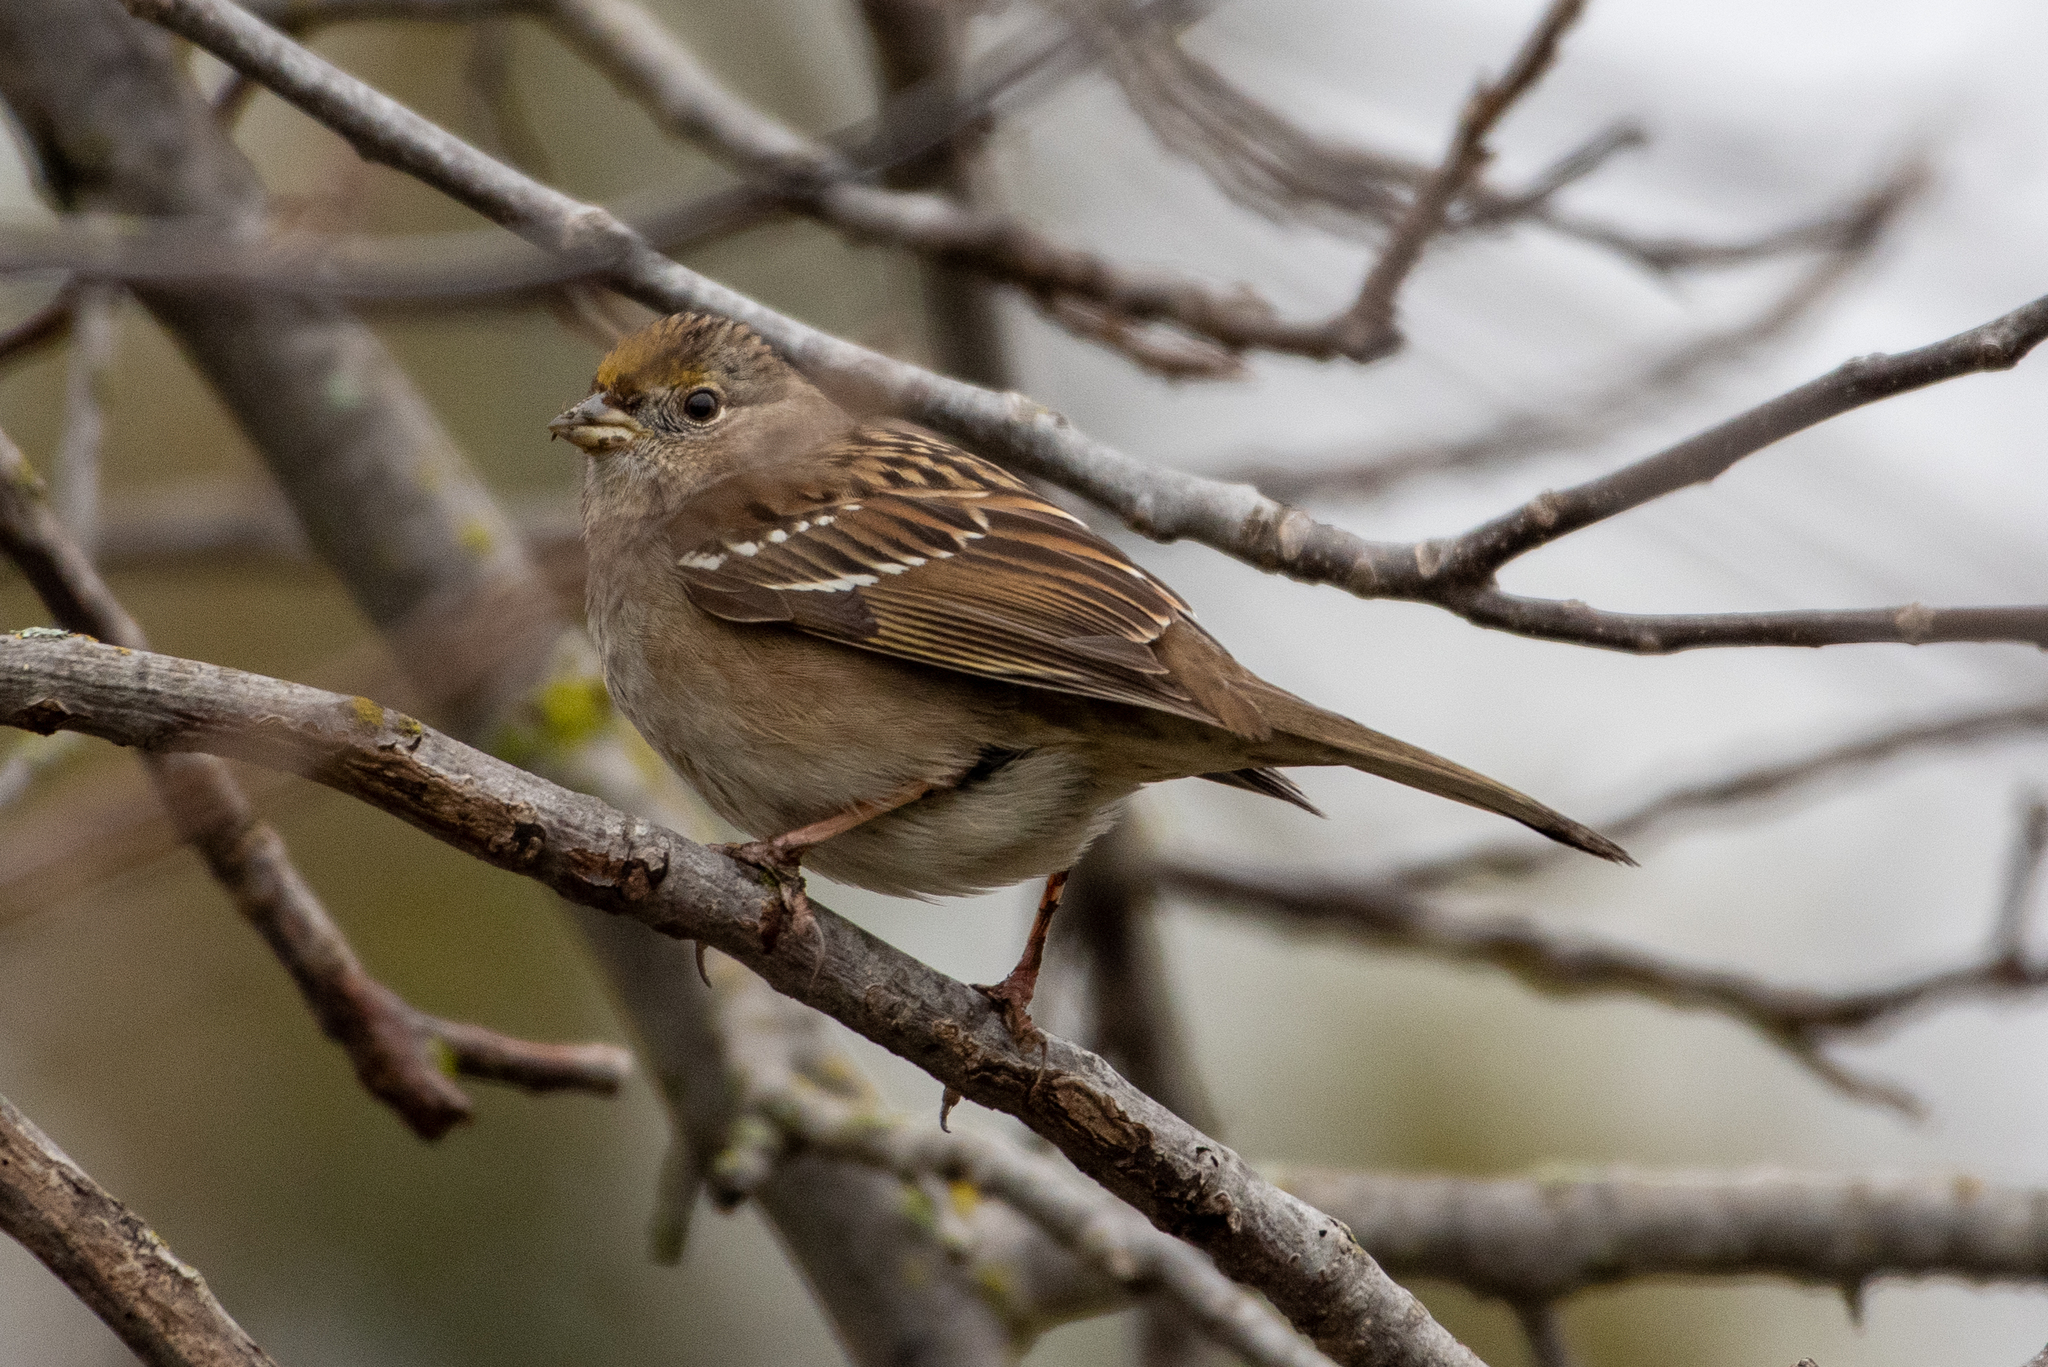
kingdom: Animalia
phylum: Chordata
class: Aves
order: Passeriformes
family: Passerellidae
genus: Zonotrichia
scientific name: Zonotrichia atricapilla
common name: Golden-crowned sparrow
